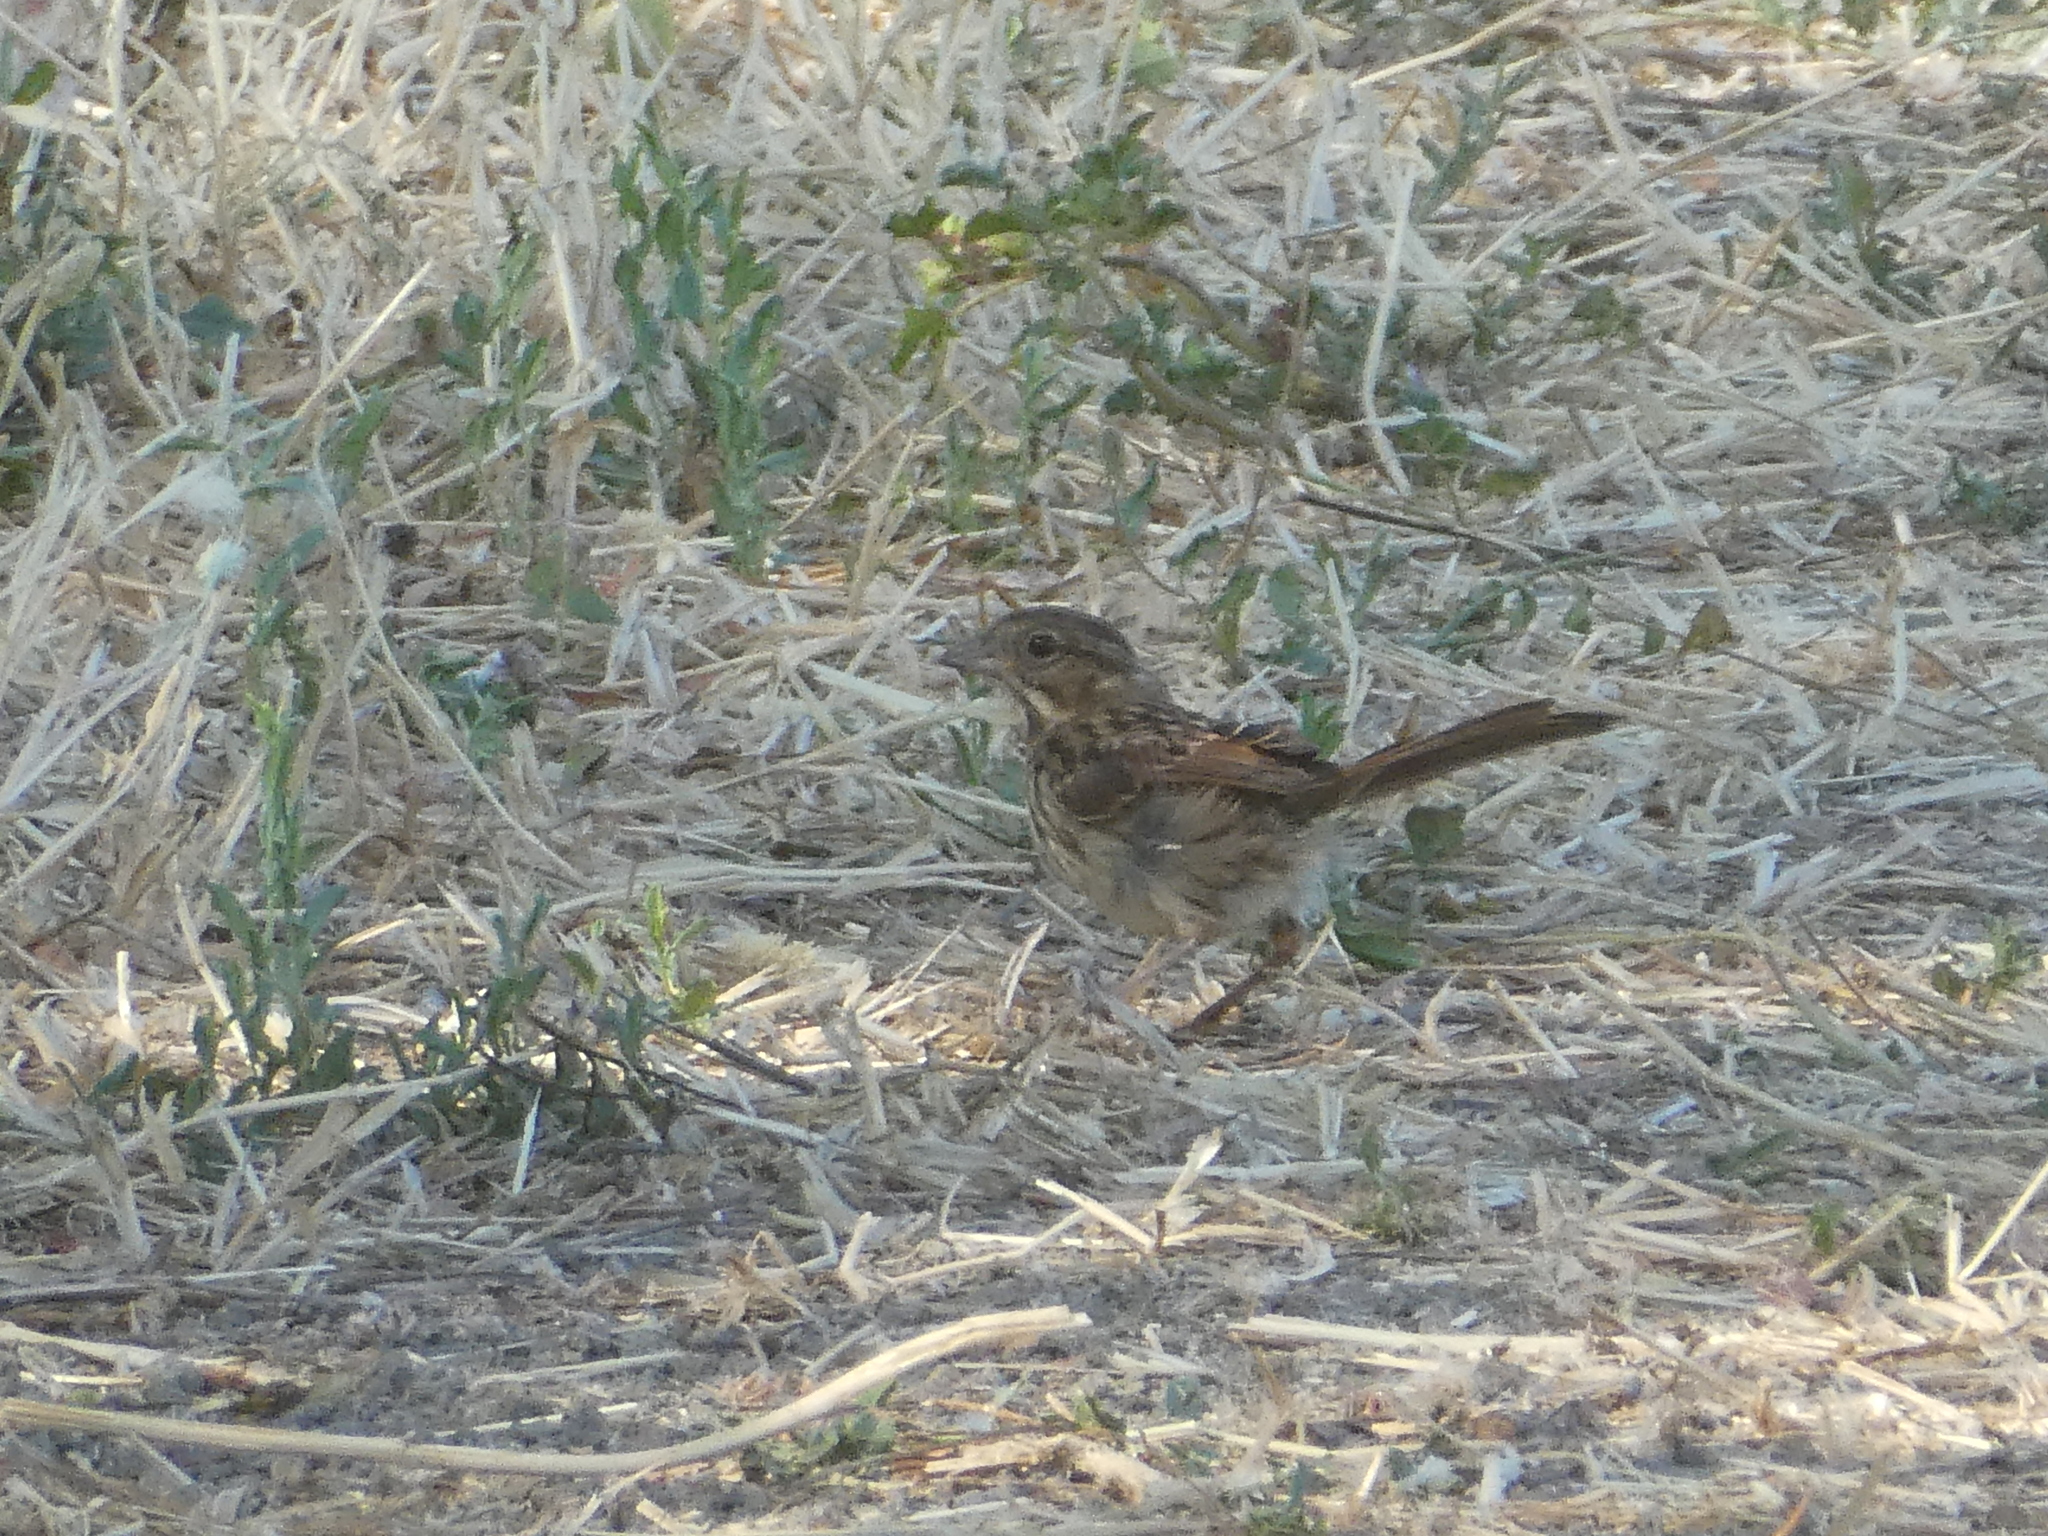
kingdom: Animalia
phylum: Chordata
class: Aves
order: Passeriformes
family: Passerellidae
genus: Melospiza
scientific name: Melospiza melodia
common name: Song sparrow
